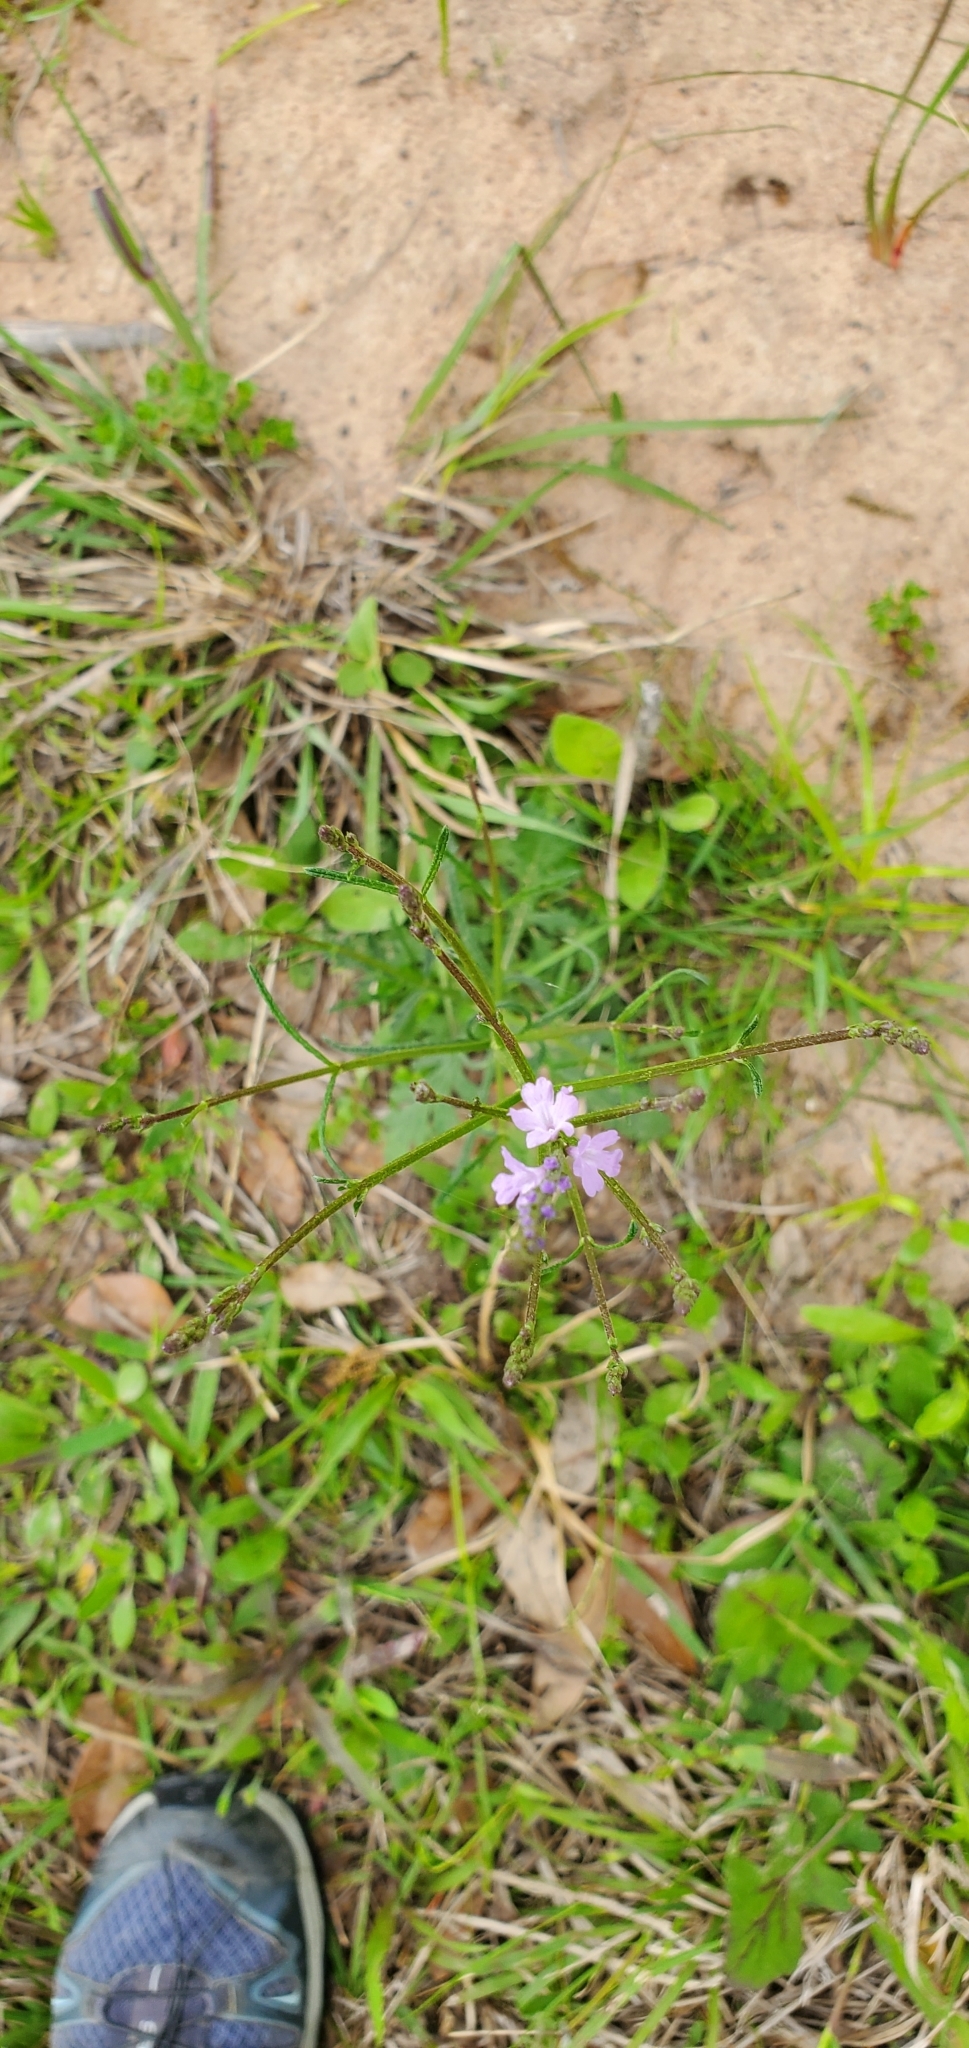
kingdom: Plantae
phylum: Tracheophyta
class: Magnoliopsida
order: Lamiales
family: Verbenaceae
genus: Verbena
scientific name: Verbena halei
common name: Texas vervain
